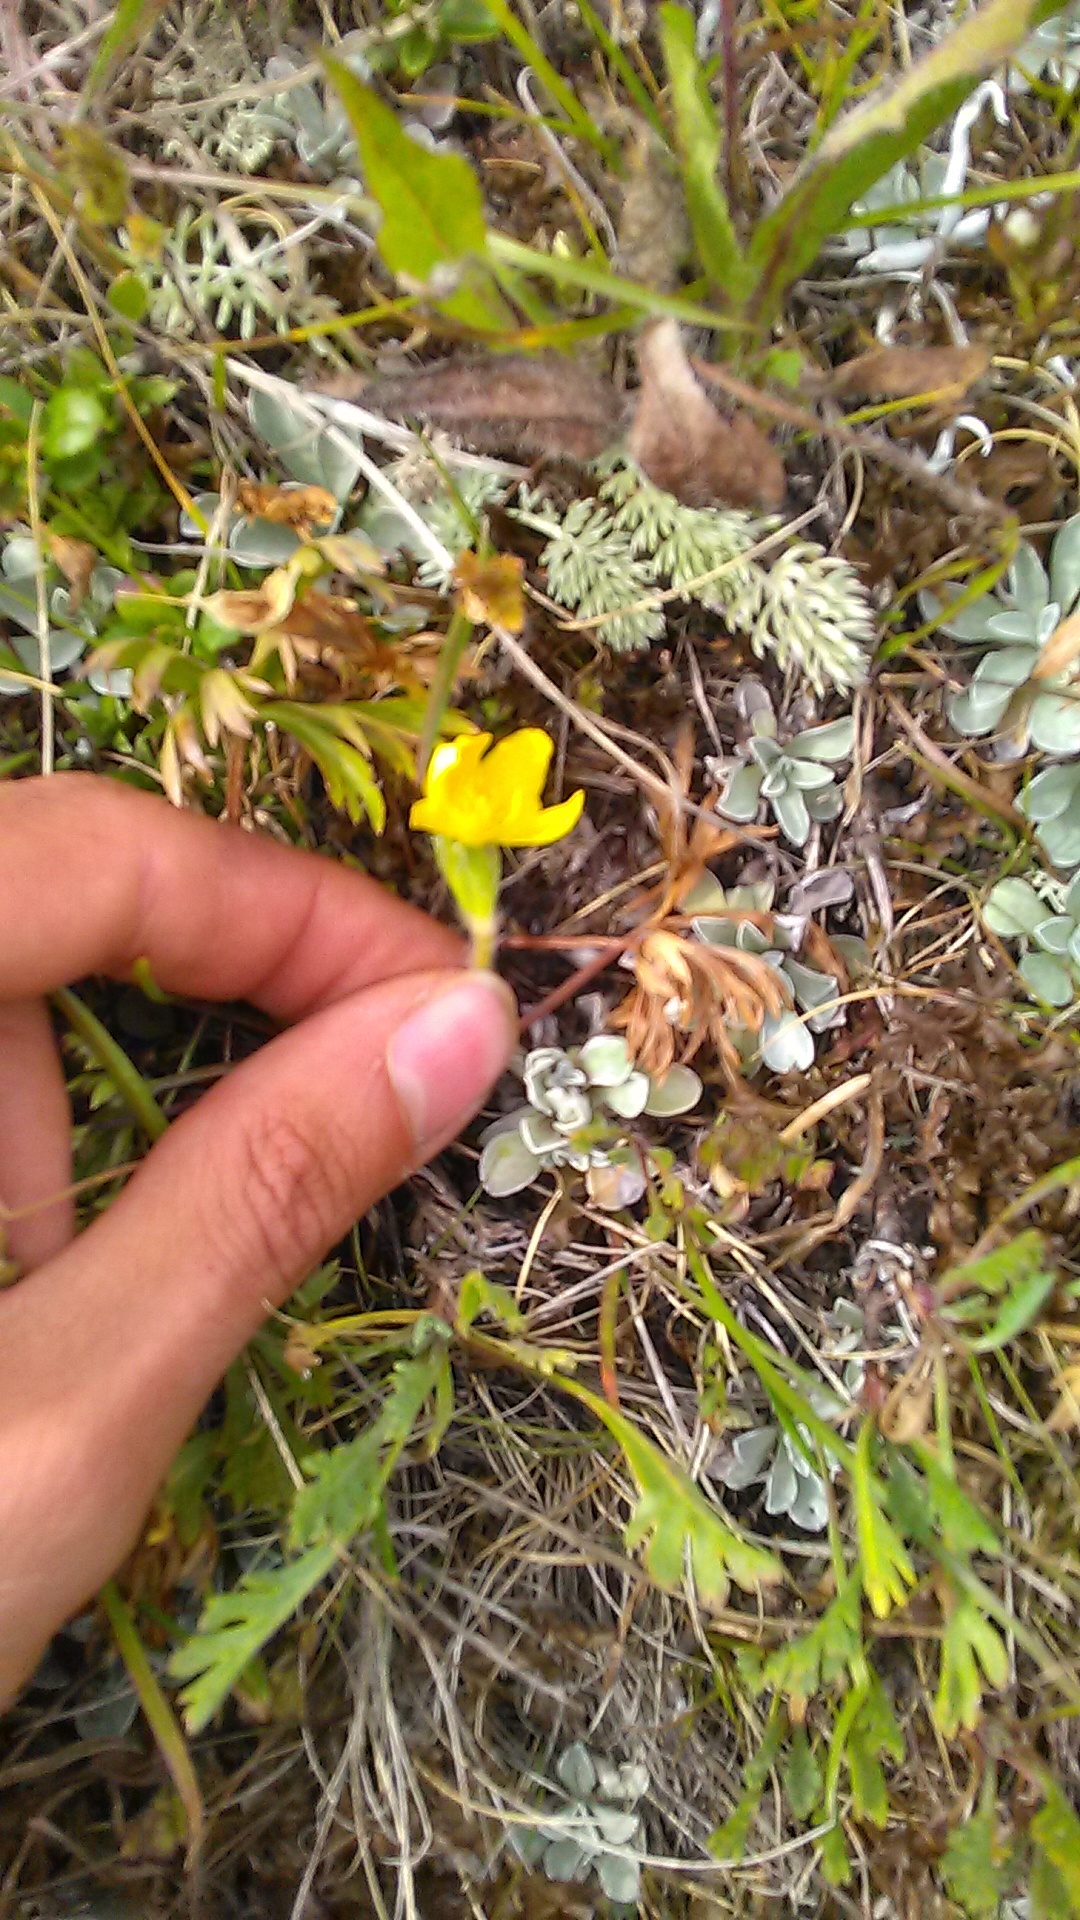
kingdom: Plantae
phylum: Tracheophyta
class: Magnoliopsida
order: Ranunculales
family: Ranunculaceae
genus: Anemonastrum
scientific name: Anemonastrum narcissiflorum
